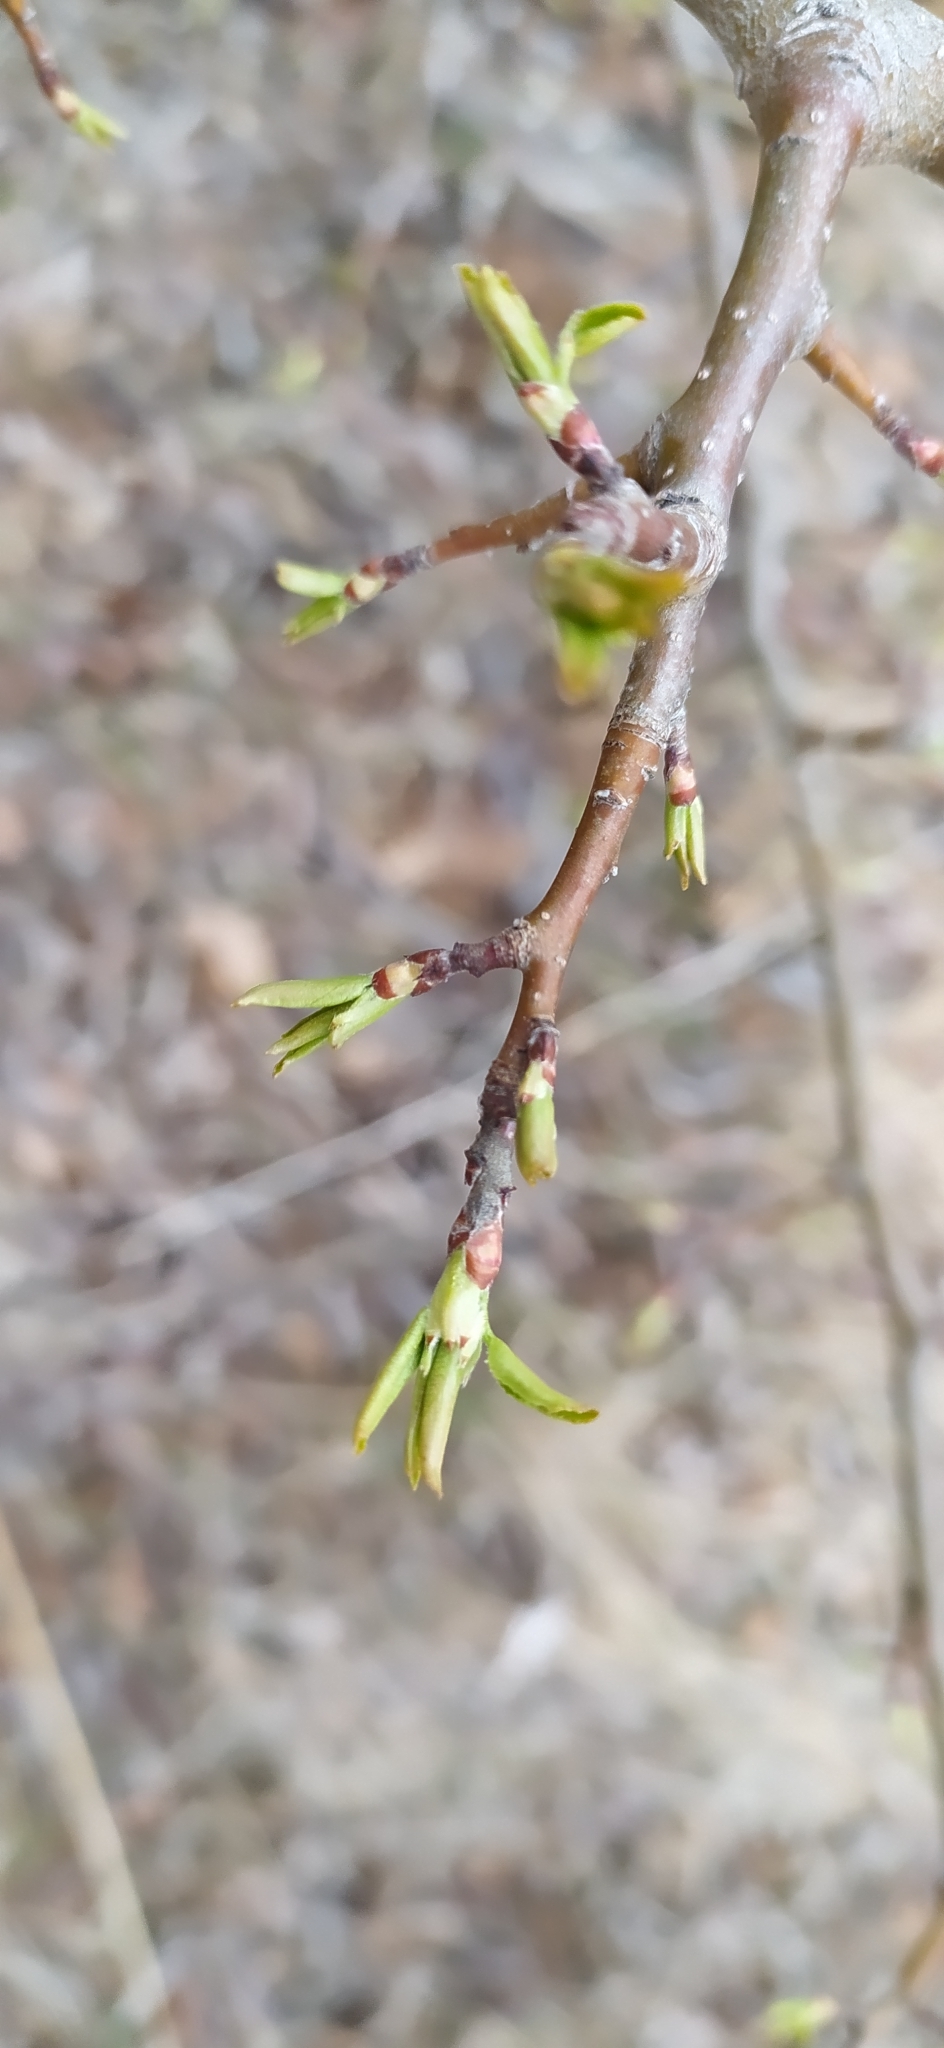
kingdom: Plantae
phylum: Tracheophyta
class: Magnoliopsida
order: Rosales
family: Rosaceae
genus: Malus
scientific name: Malus baccata
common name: Siberian crab
